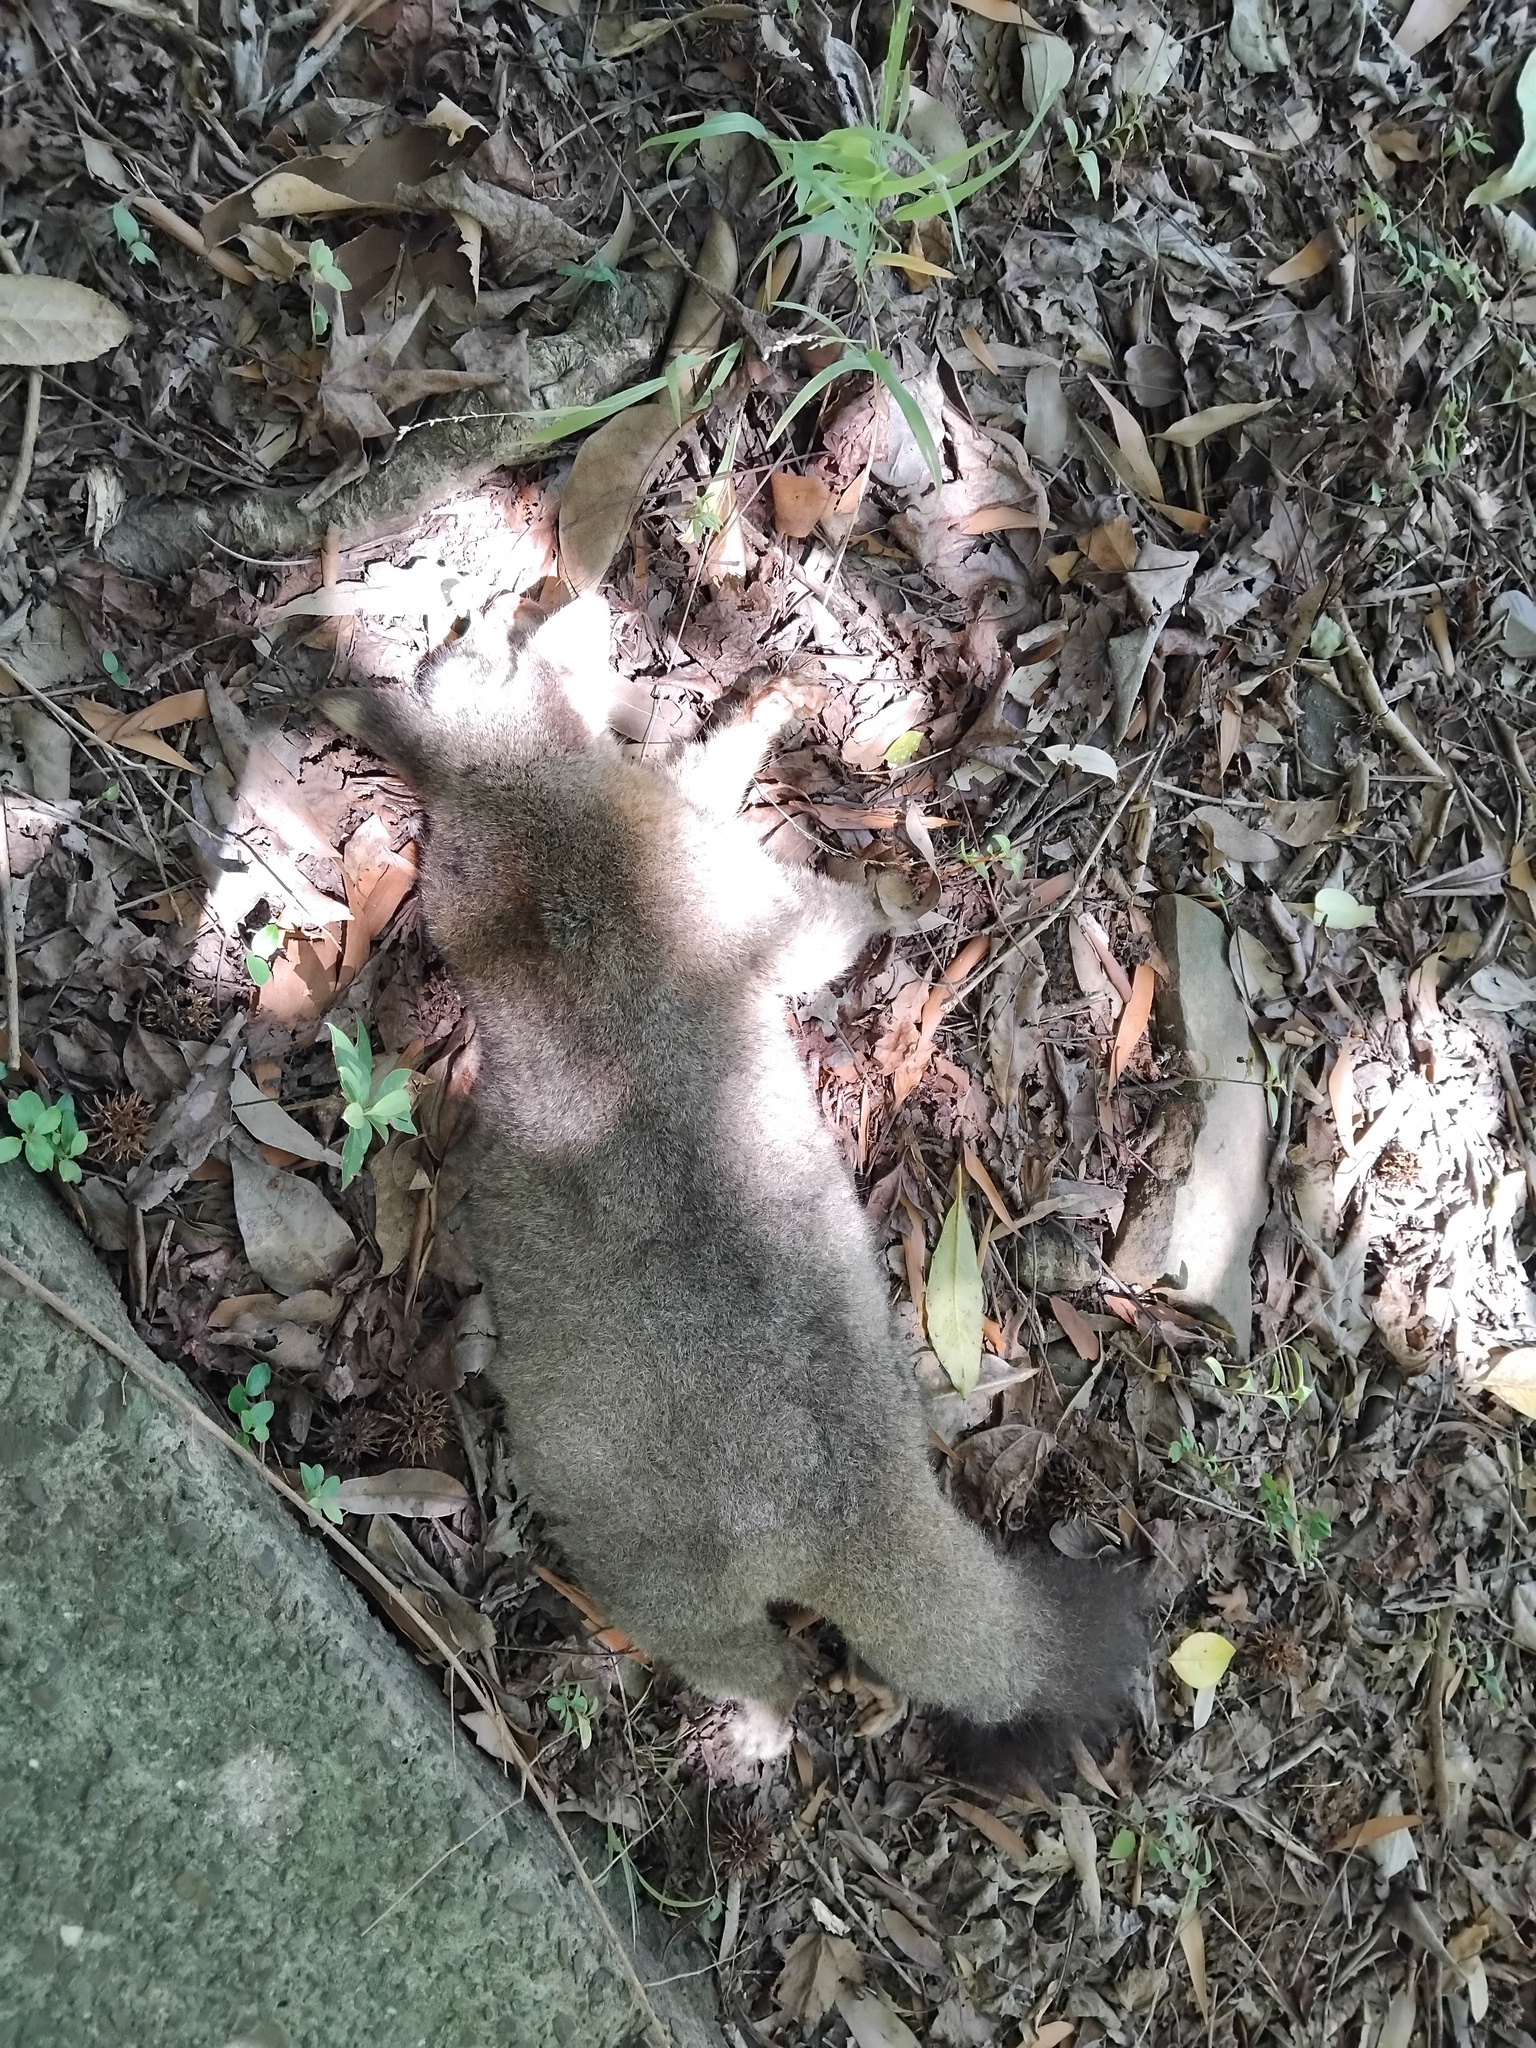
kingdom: Animalia
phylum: Chordata
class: Mammalia
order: Diprotodontia
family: Phalangeridae
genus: Trichosurus
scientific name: Trichosurus vulpecula
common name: Common brushtail
